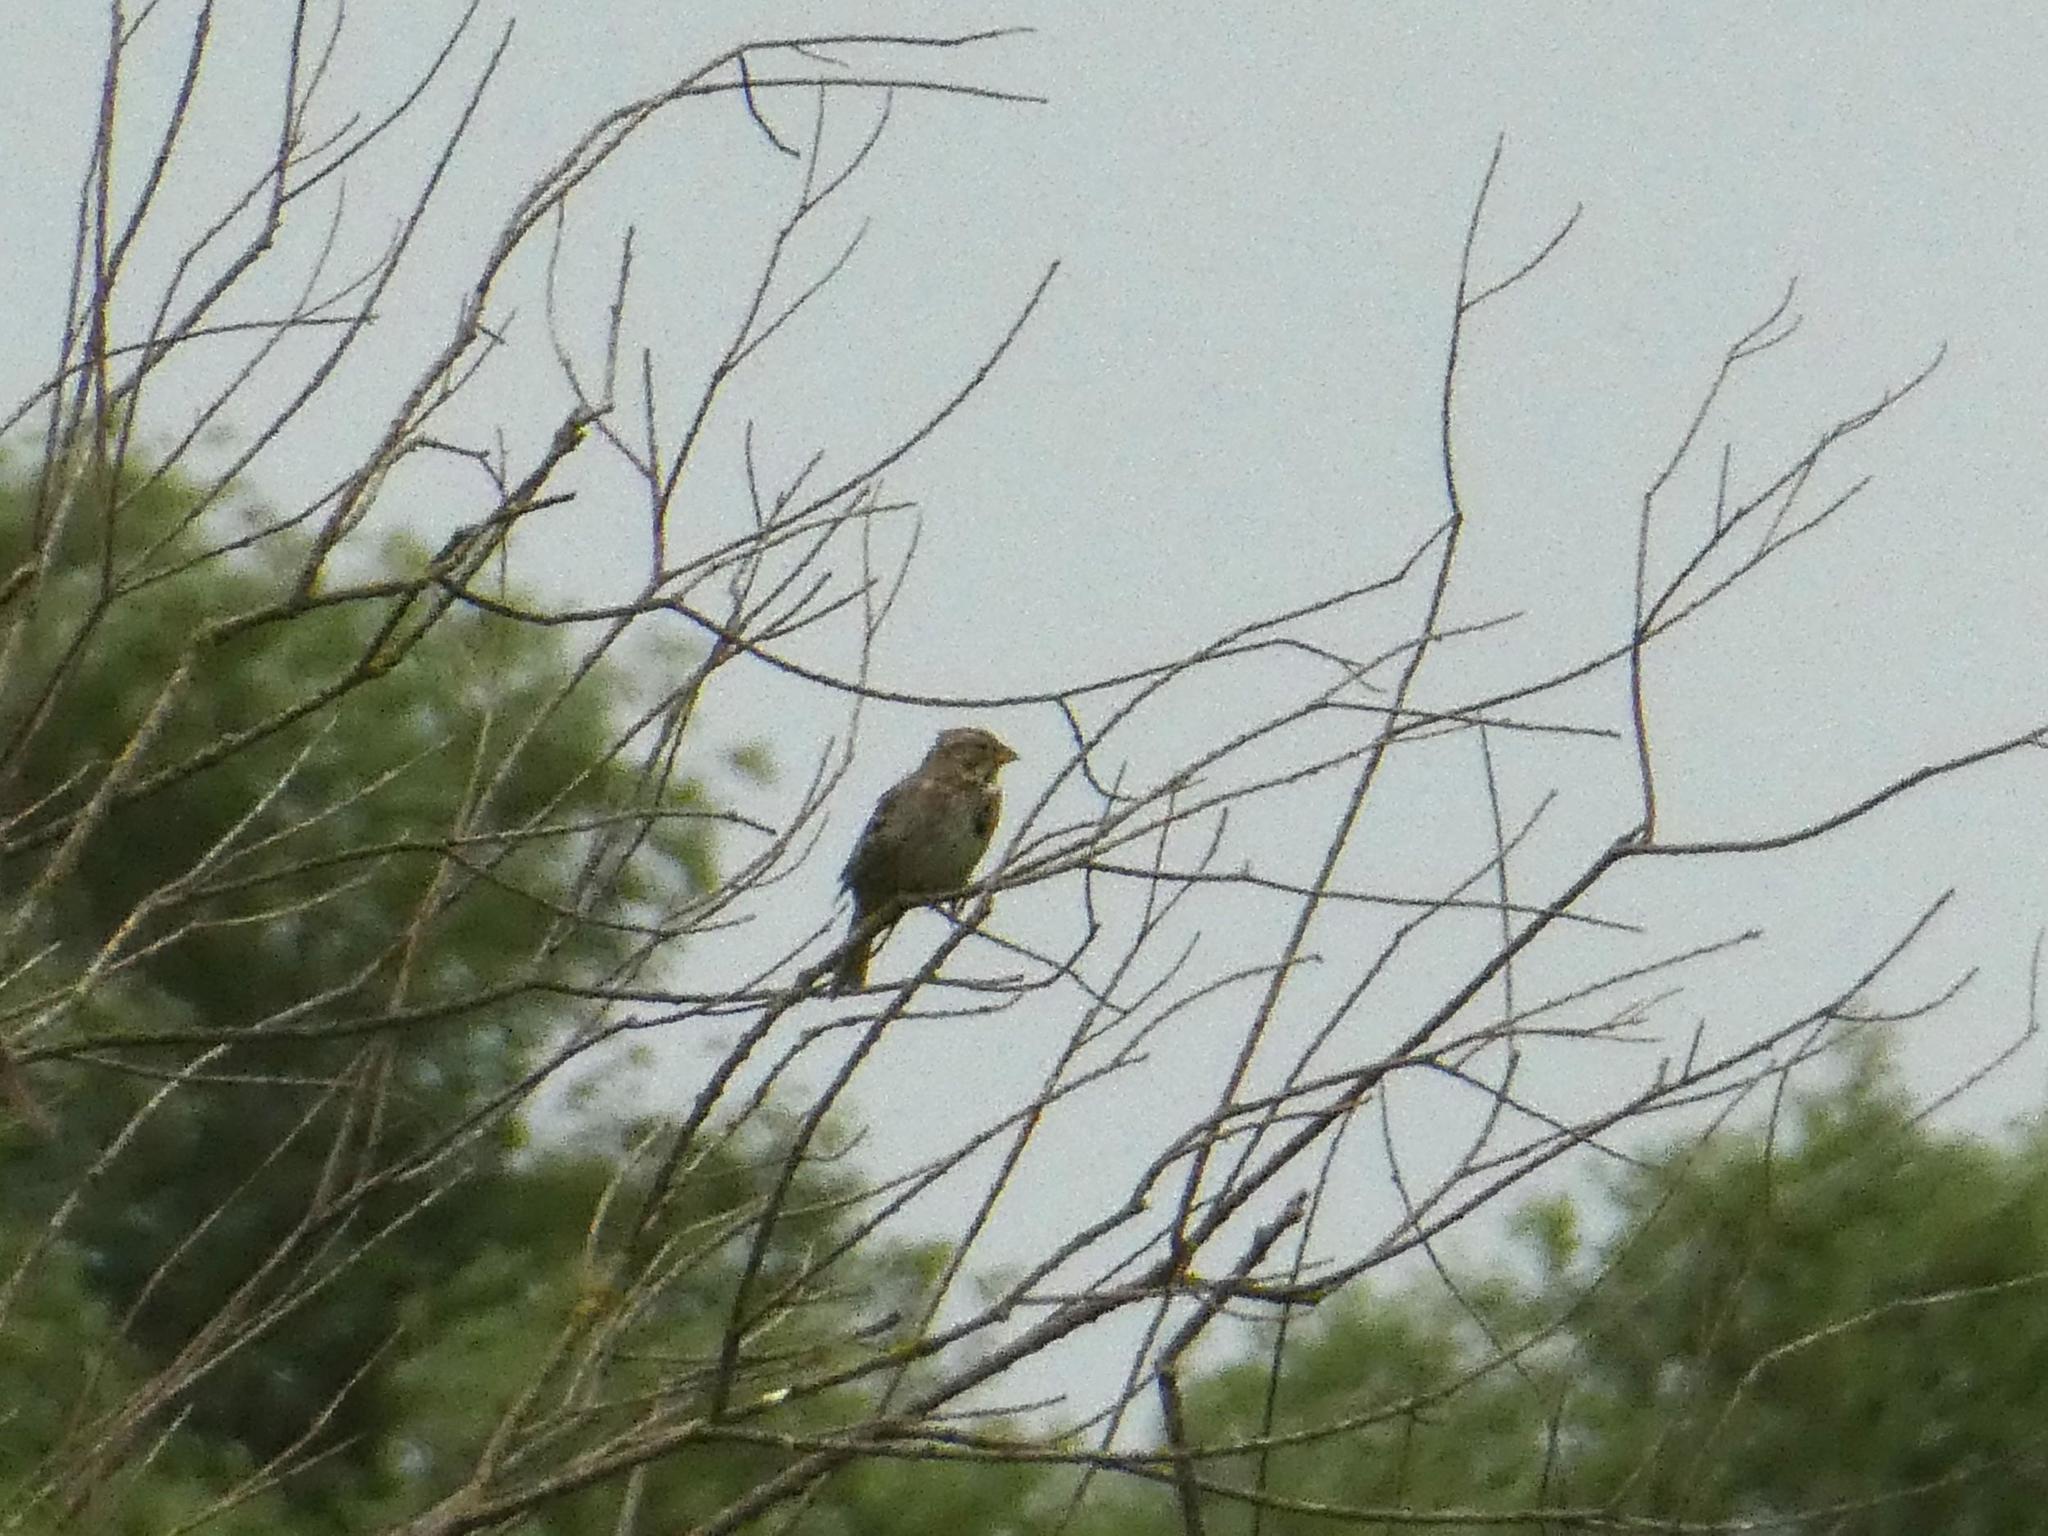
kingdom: Animalia
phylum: Chordata
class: Aves
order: Passeriformes
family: Emberizidae
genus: Emberiza
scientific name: Emberiza calandra
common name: Corn bunting
